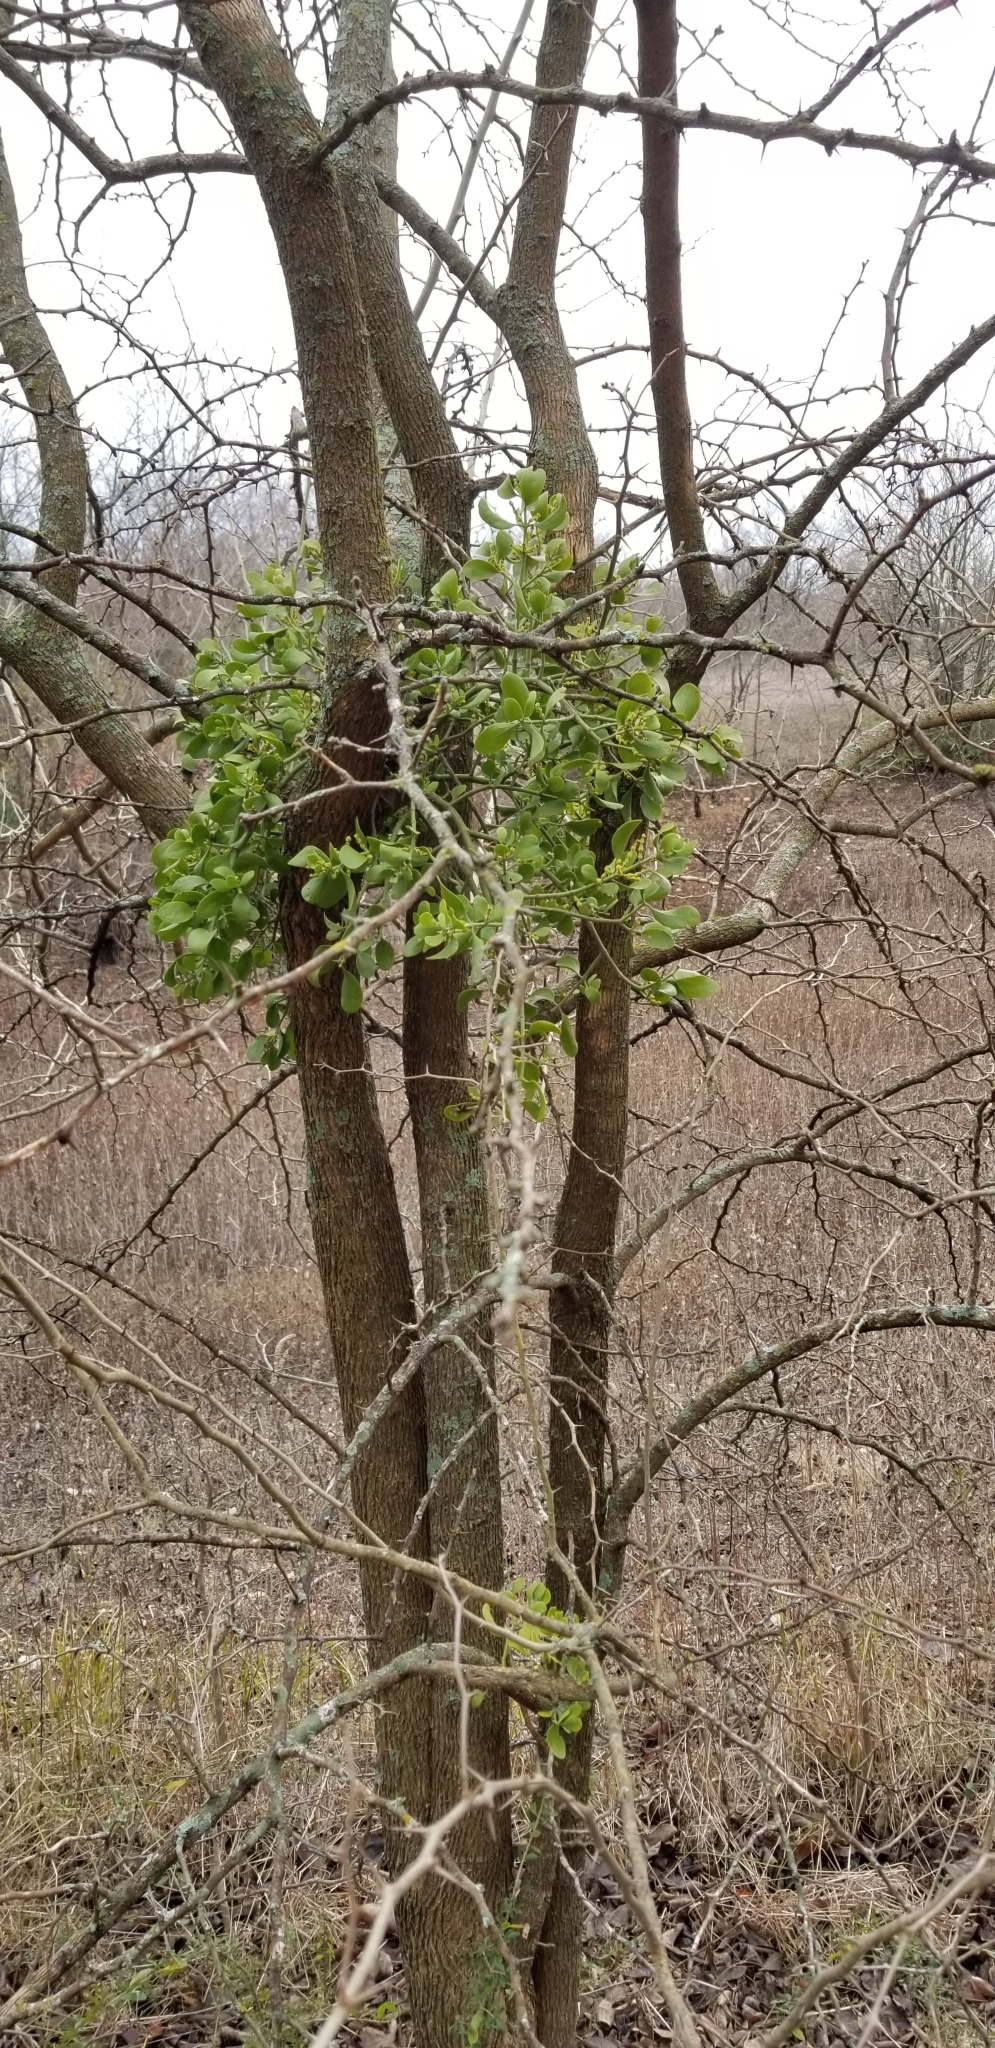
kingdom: Plantae
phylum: Tracheophyta
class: Magnoliopsida
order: Santalales
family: Viscaceae
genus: Phoradendron
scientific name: Phoradendron leucarpum
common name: Pacific mistletoe
